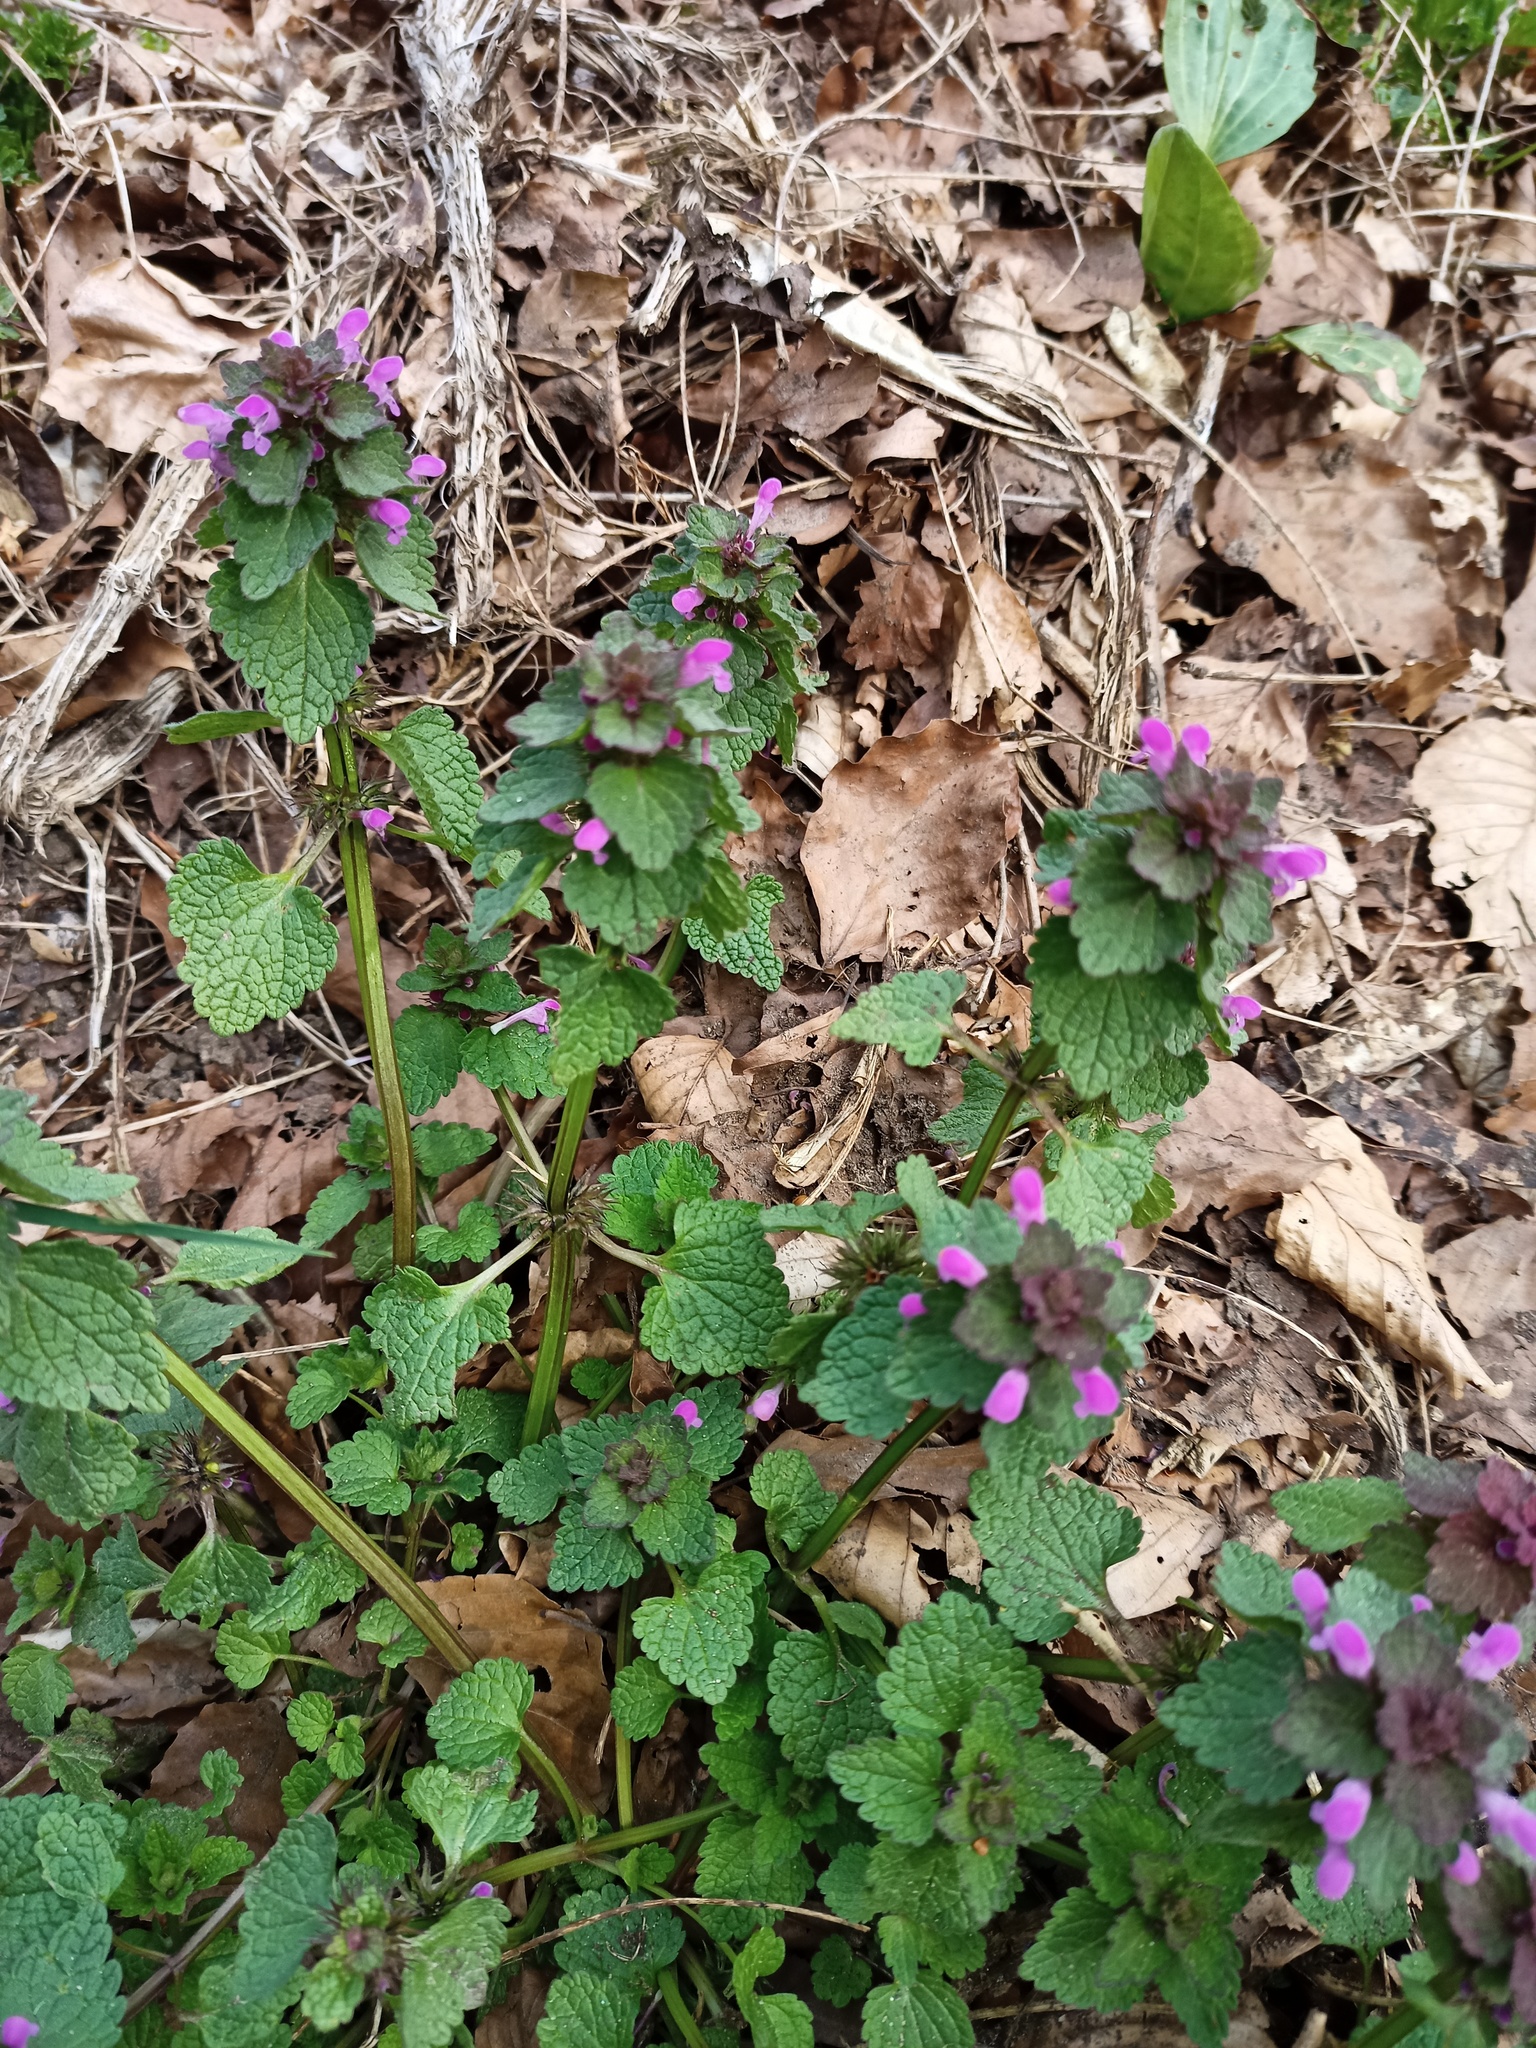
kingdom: Plantae
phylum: Tracheophyta
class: Magnoliopsida
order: Lamiales
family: Lamiaceae
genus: Lamium
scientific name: Lamium purpureum
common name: Red dead-nettle
